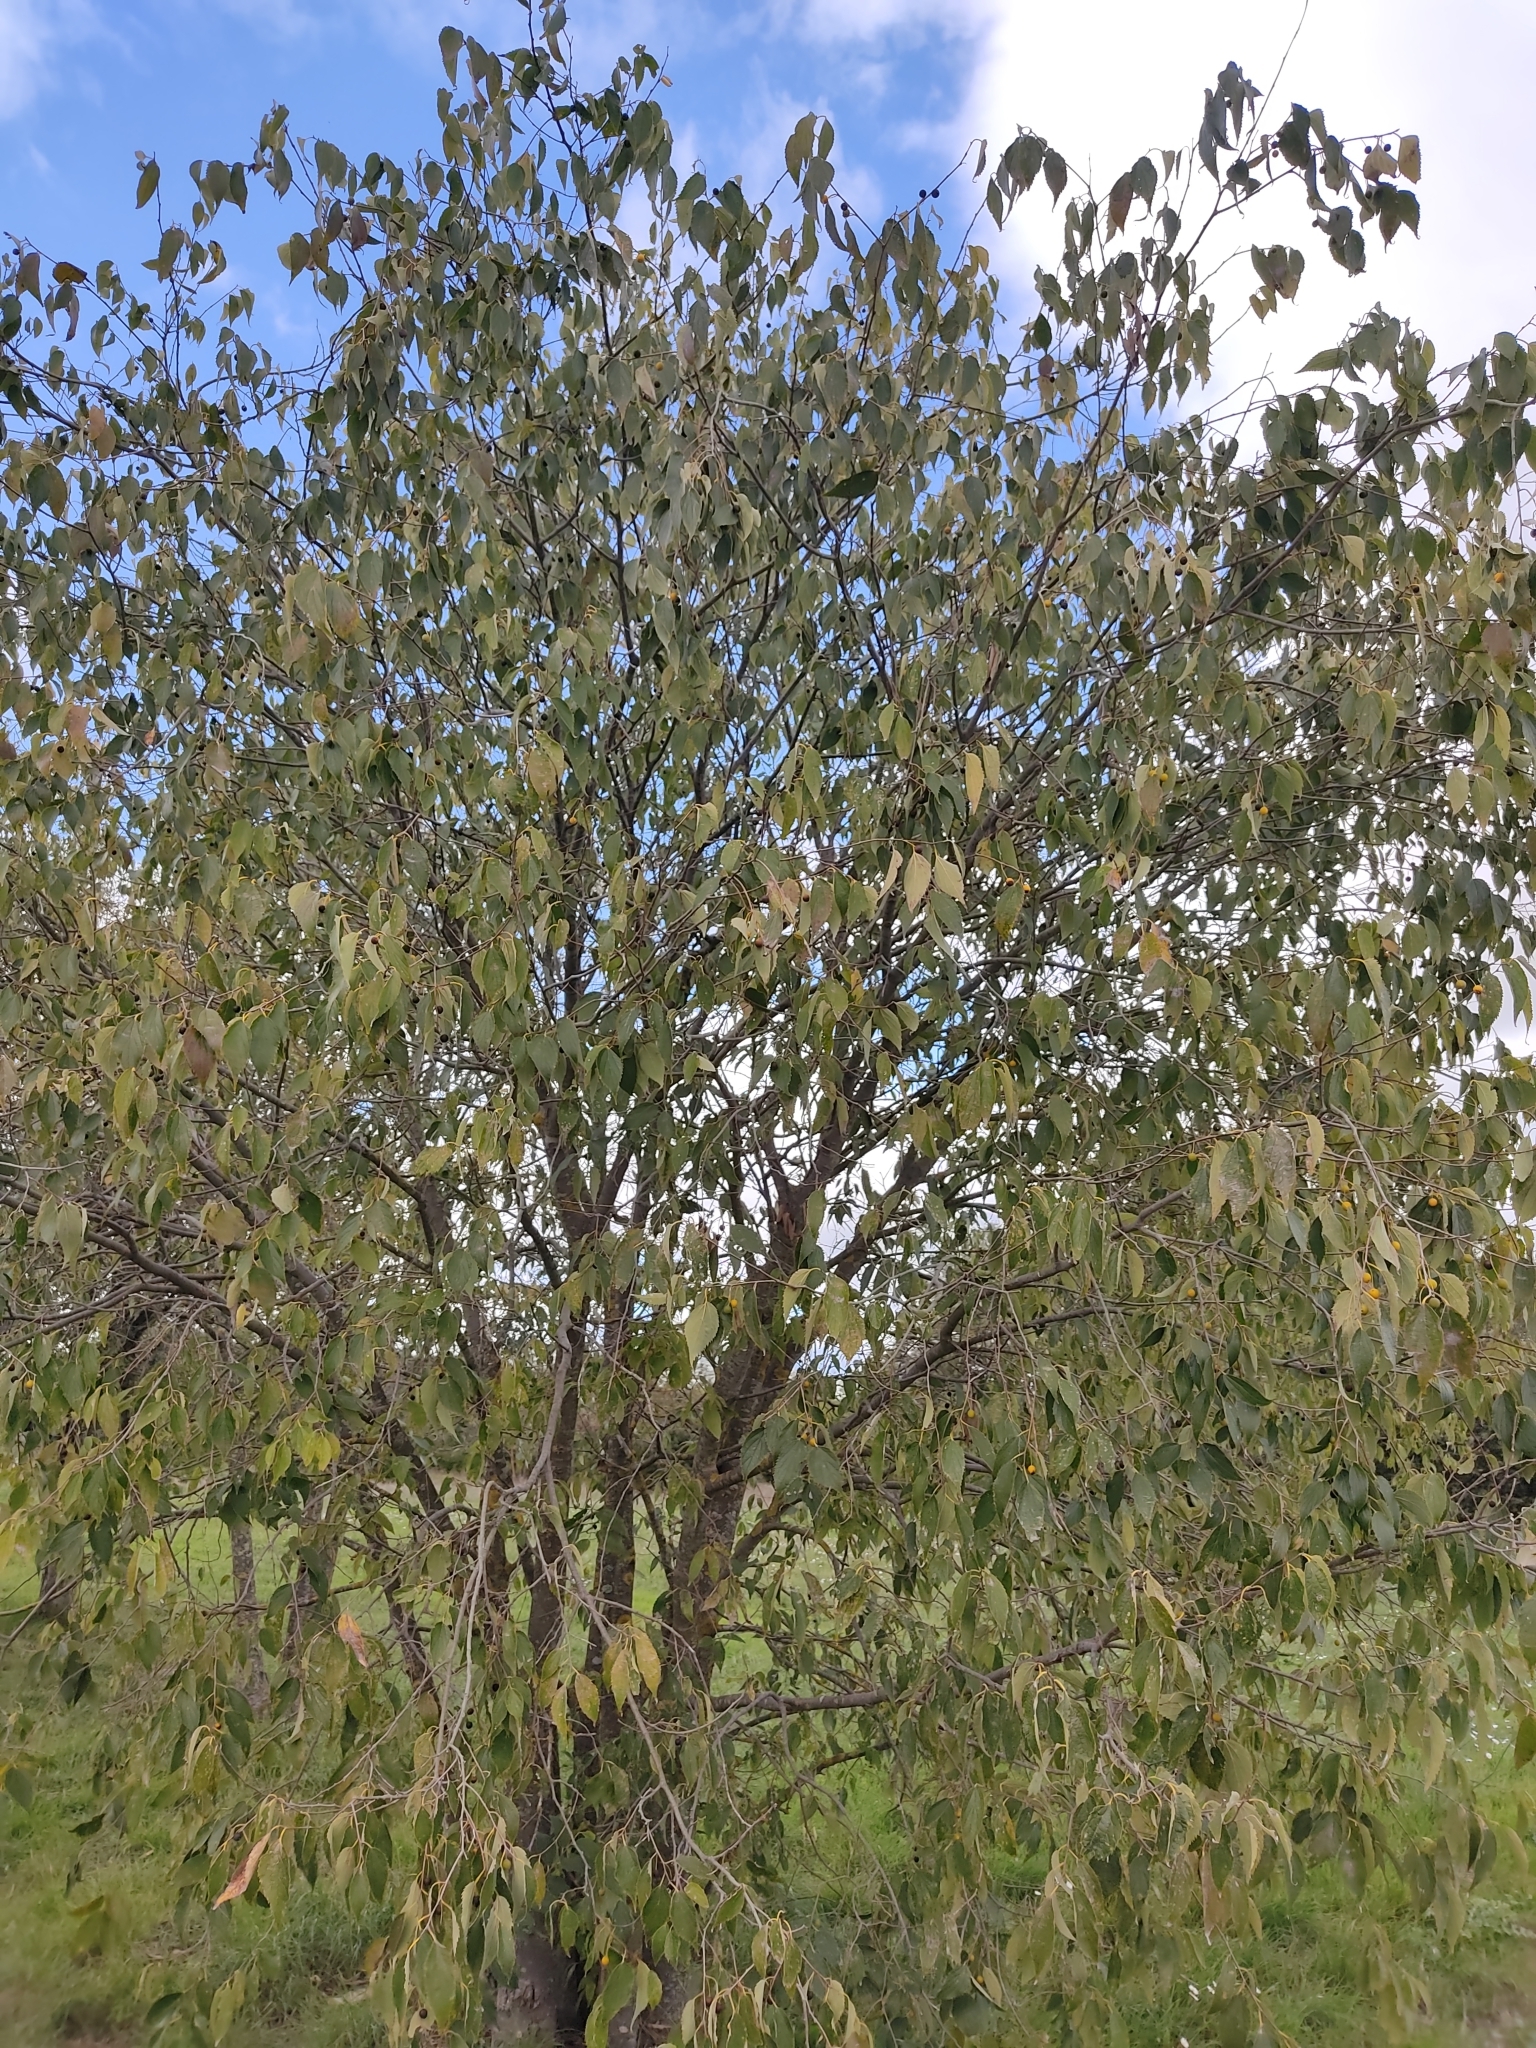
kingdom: Plantae
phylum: Tracheophyta
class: Magnoliopsida
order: Rosales
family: Cannabaceae
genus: Celtis
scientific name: Celtis australis
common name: European hackberry
